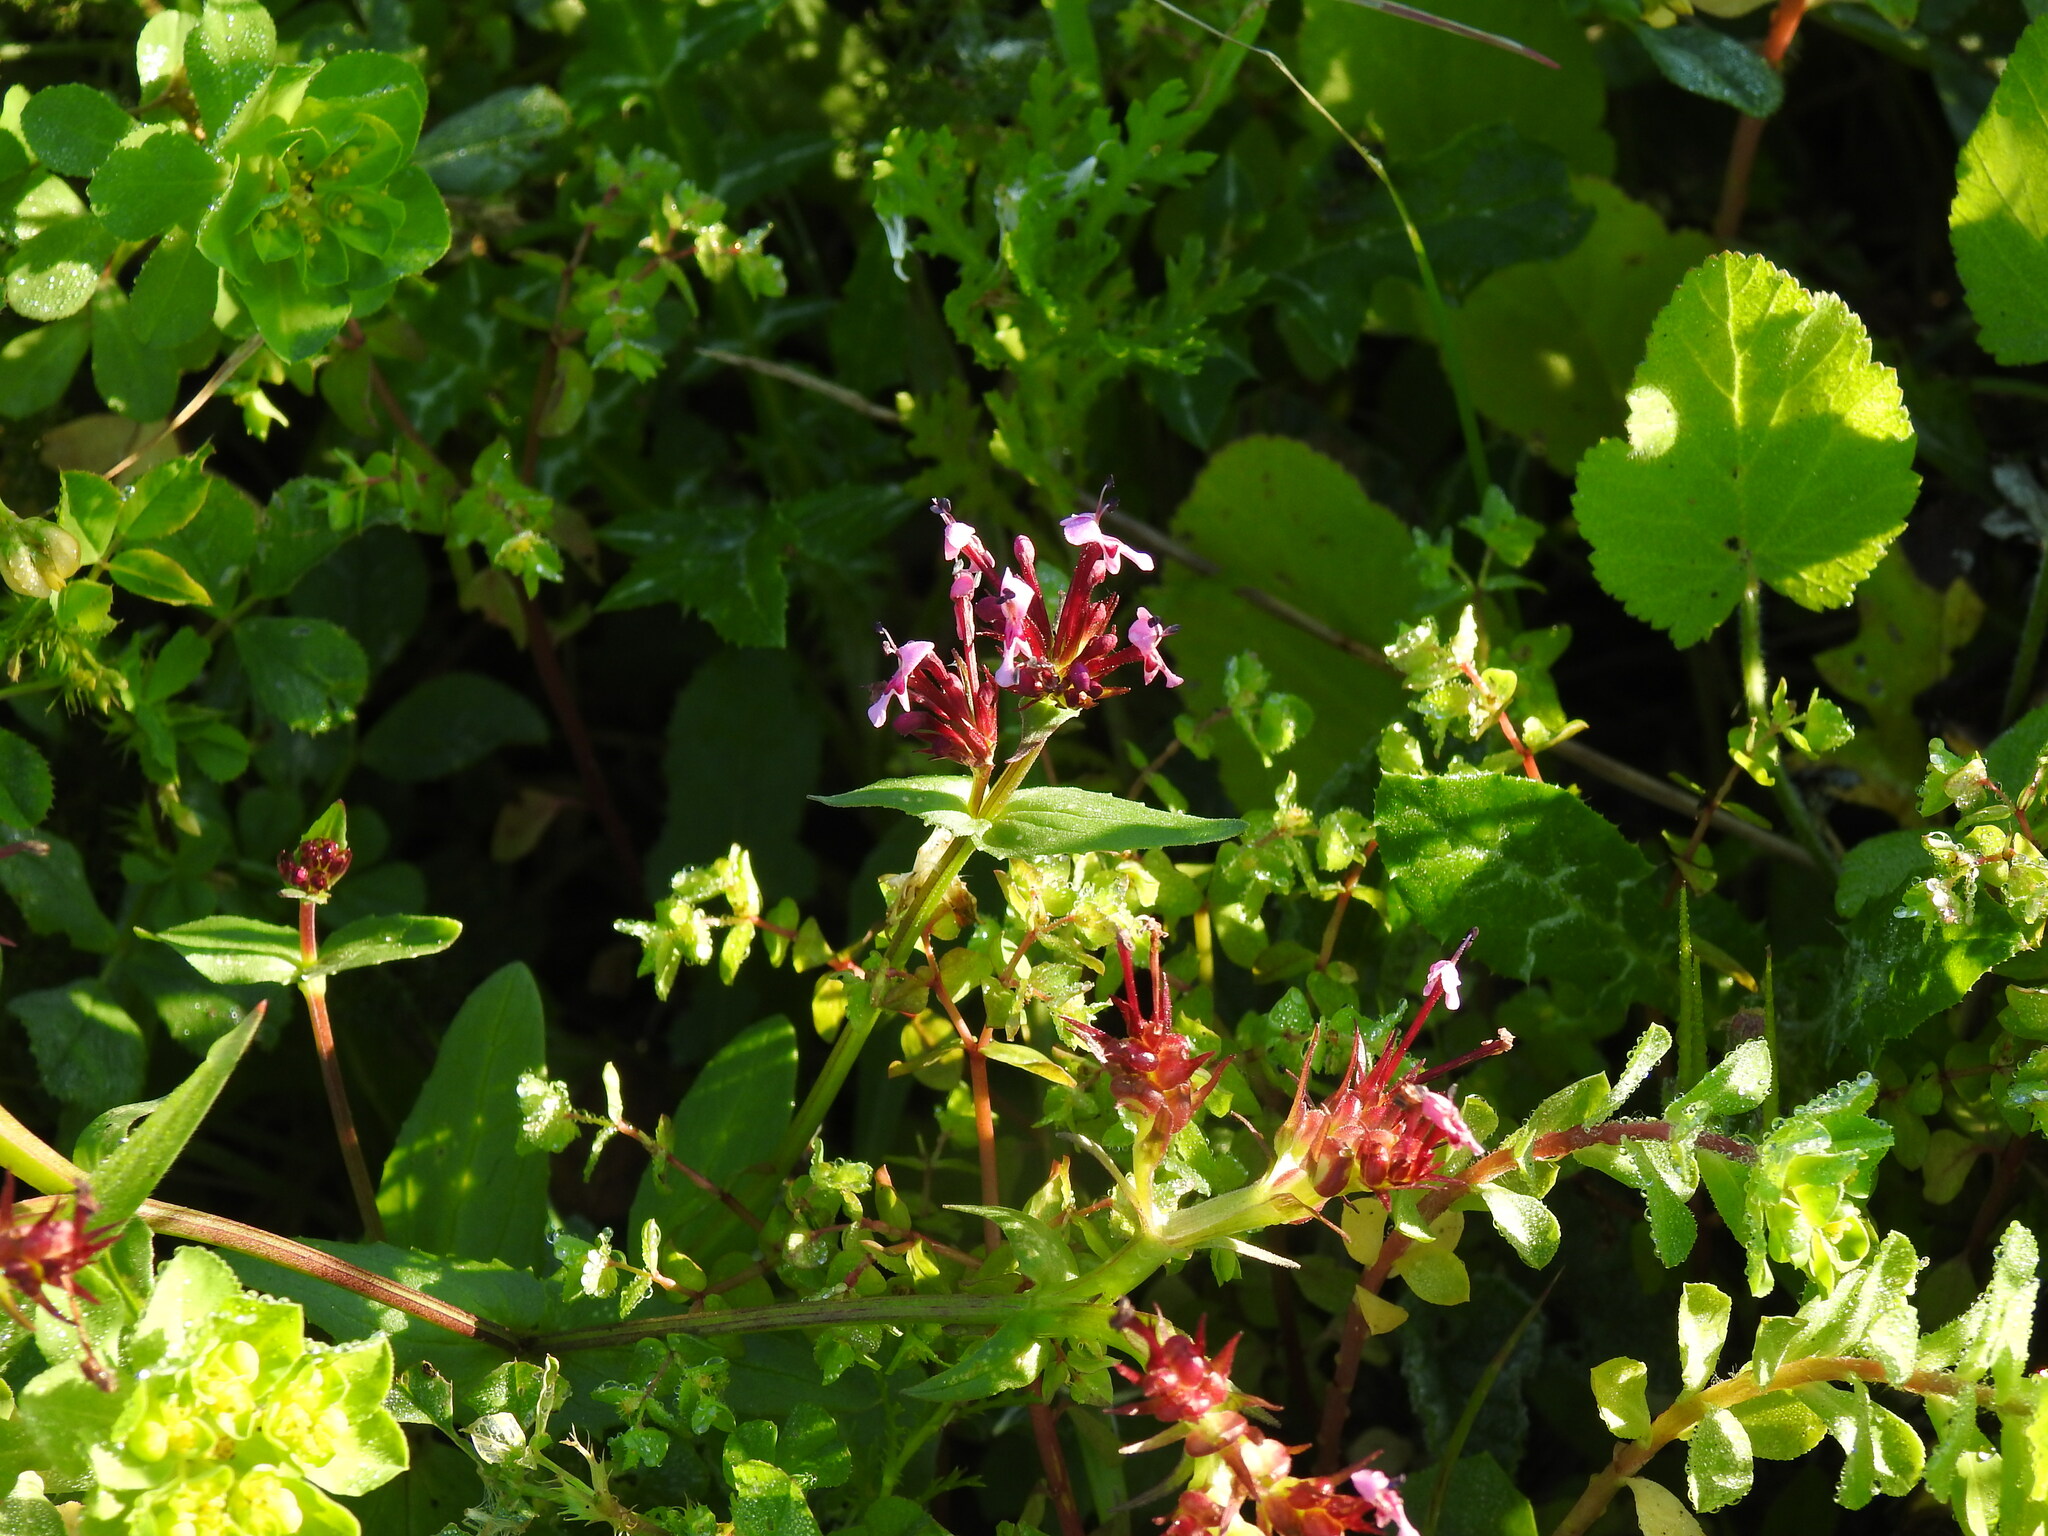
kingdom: Plantae
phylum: Tracheophyta
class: Magnoliopsida
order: Dipsacales
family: Caprifoliaceae
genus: Fedia
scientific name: Fedia cornucopiae
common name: Horn-of-plenty
